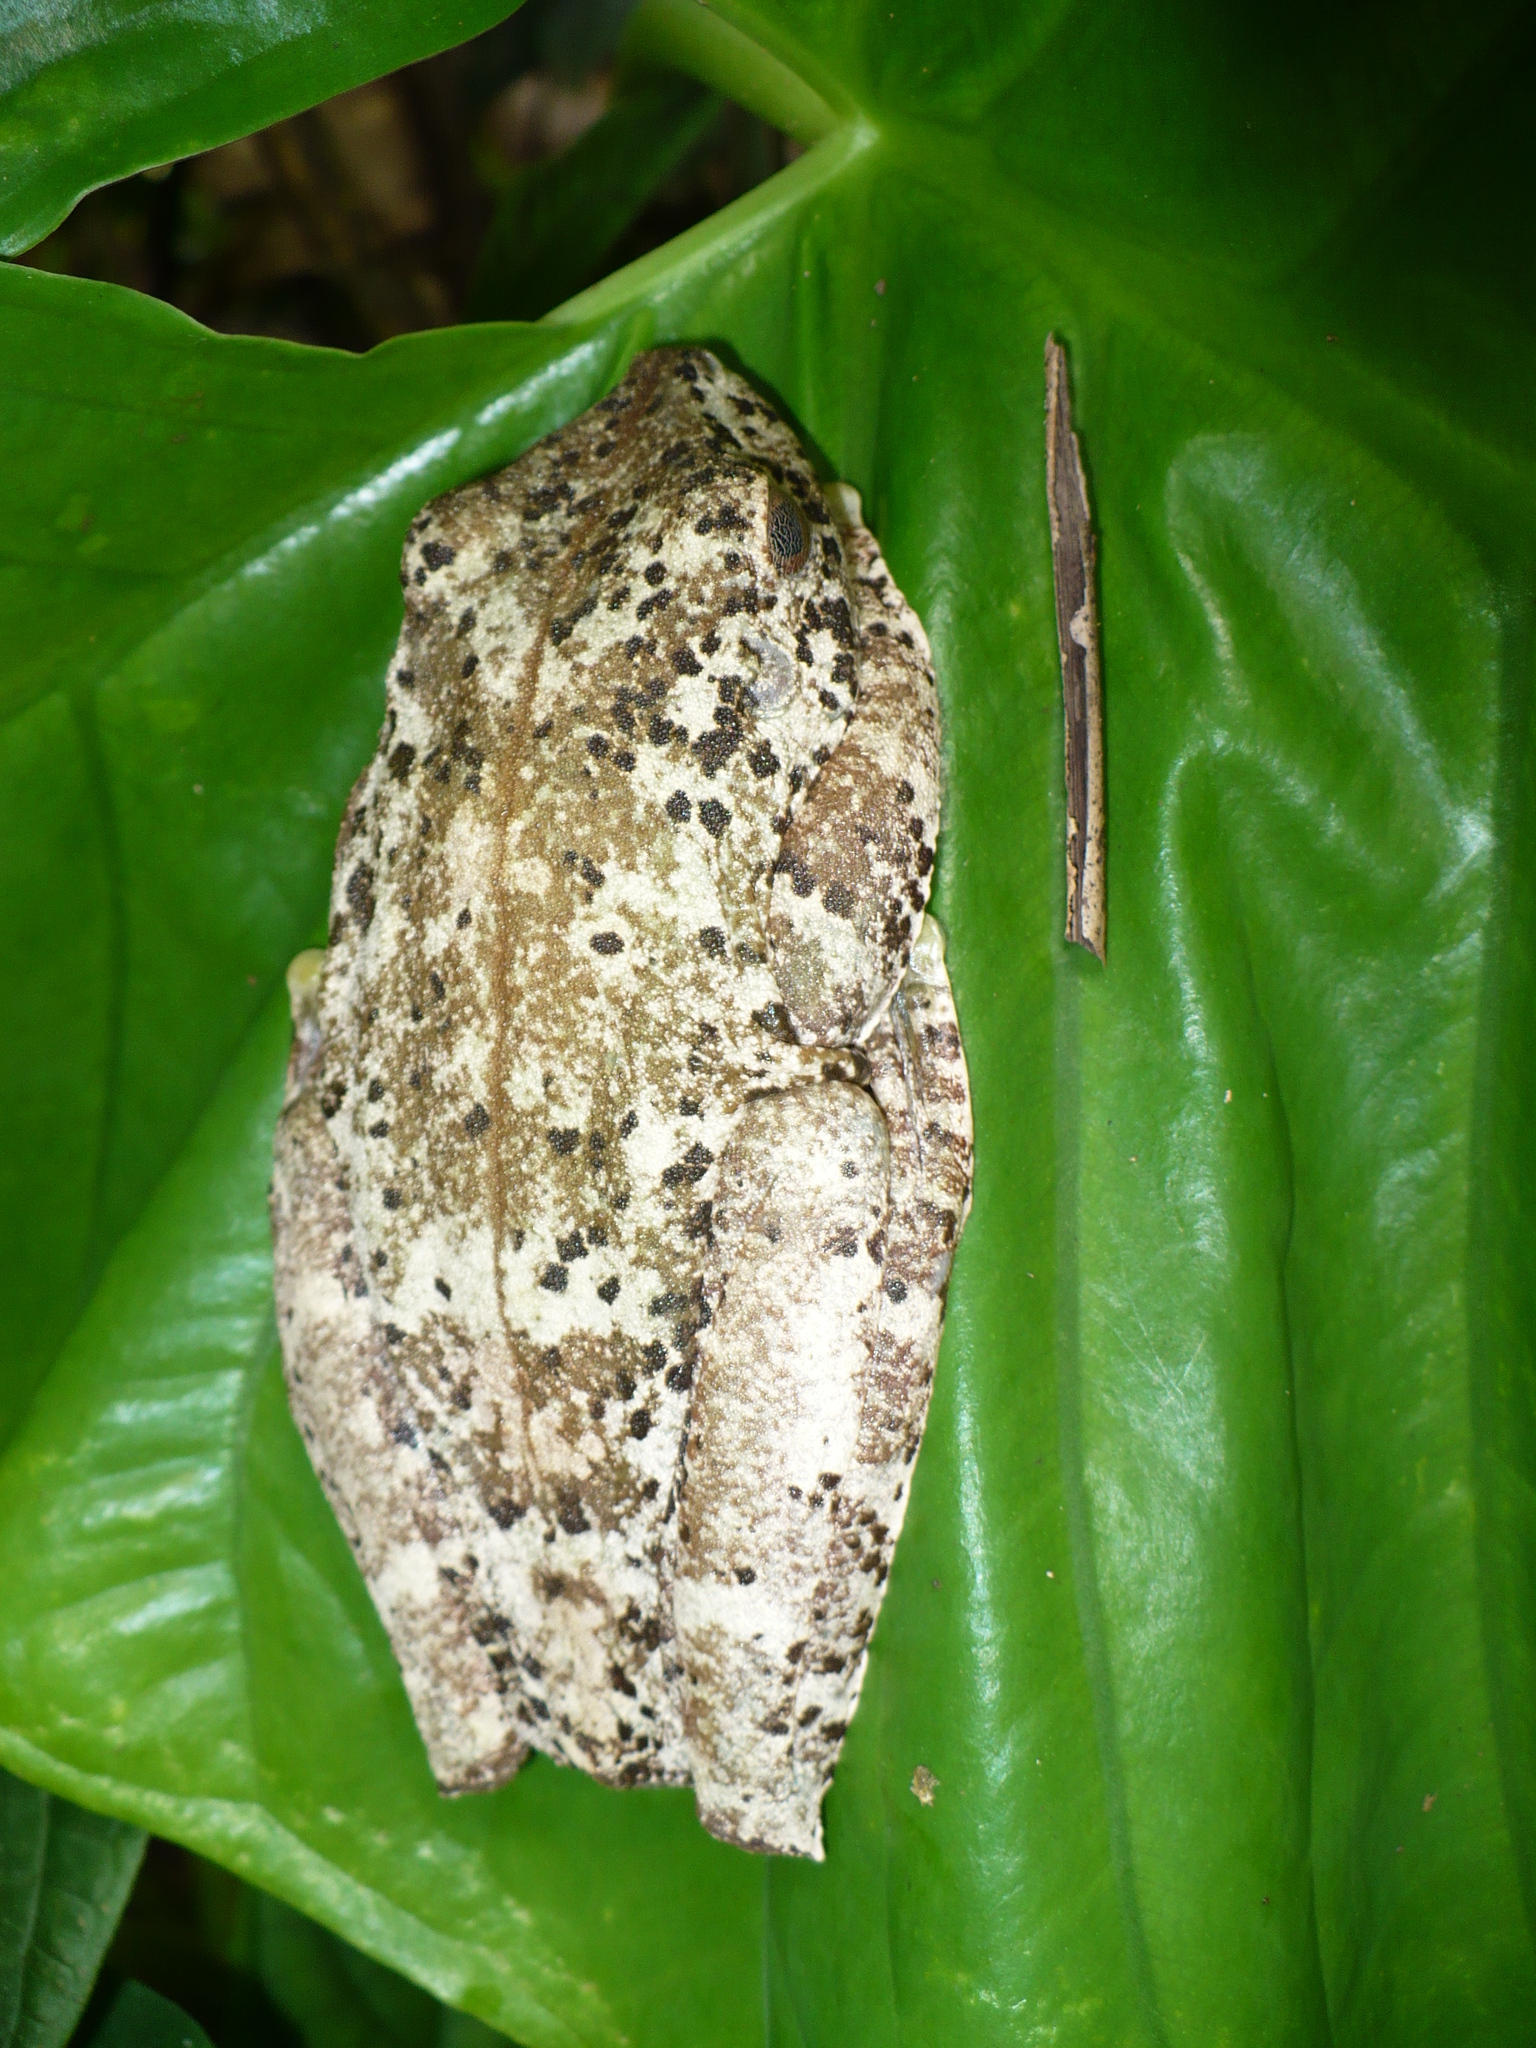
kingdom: Animalia
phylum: Chordata
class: Amphibia
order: Anura
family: Hylidae
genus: Boana
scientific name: Boana boans
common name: Giant gladiator treefrog
